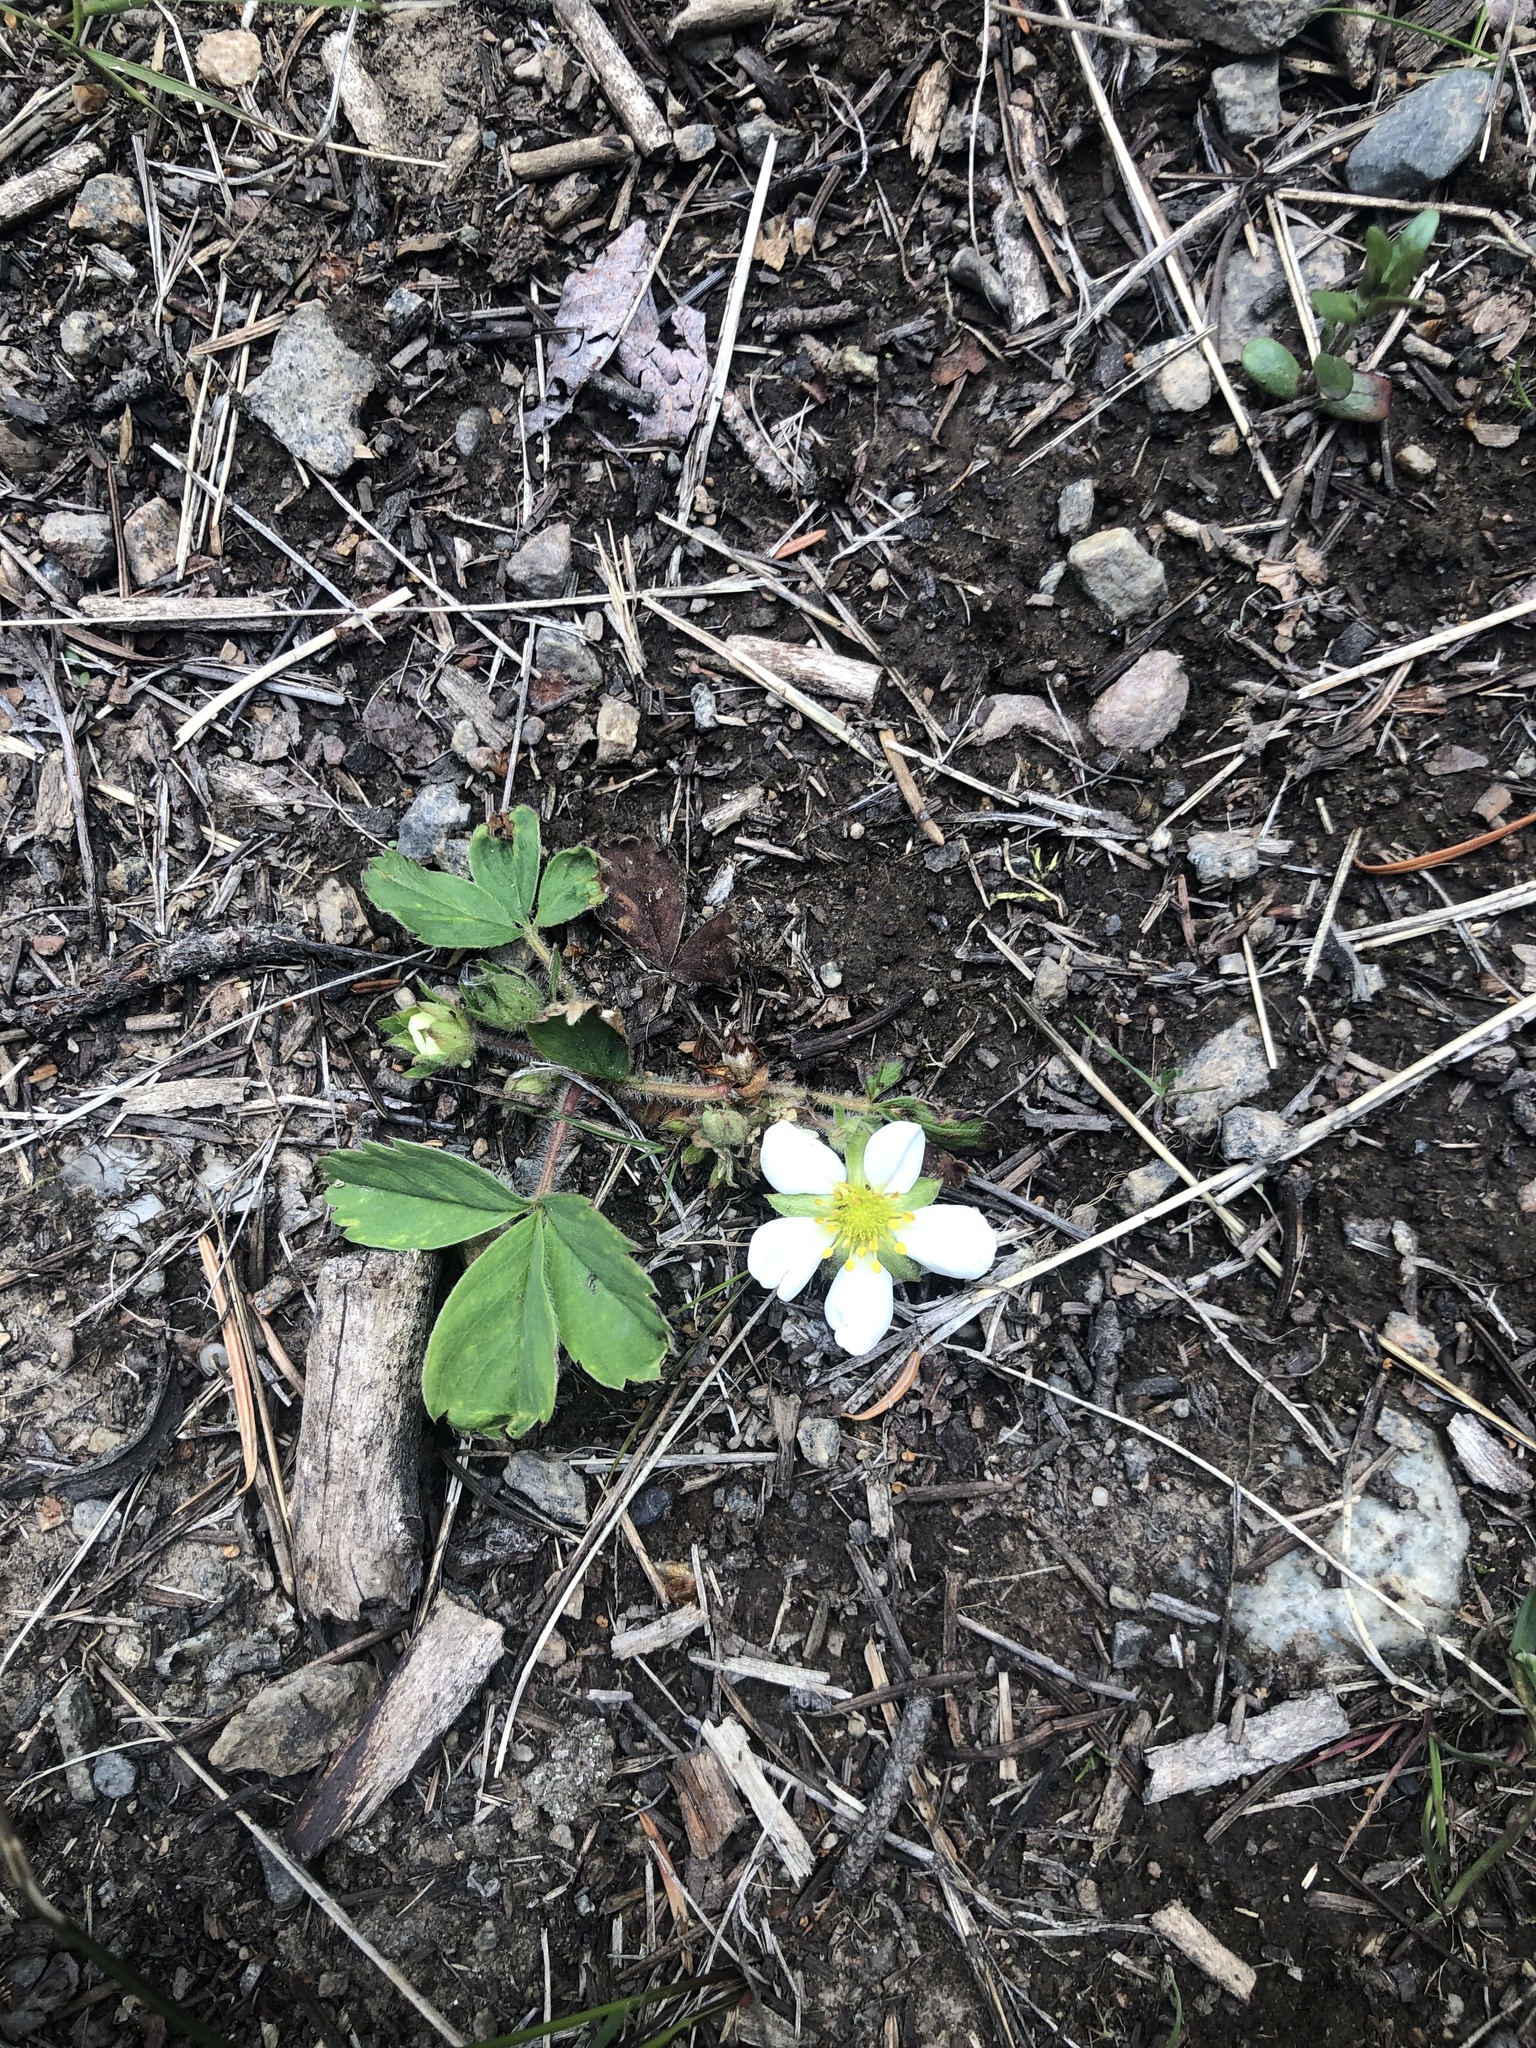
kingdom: Plantae
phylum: Tracheophyta
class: Magnoliopsida
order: Rosales
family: Rosaceae
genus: Fragaria
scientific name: Fragaria virginiana
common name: Thickleaved wild strawberry
